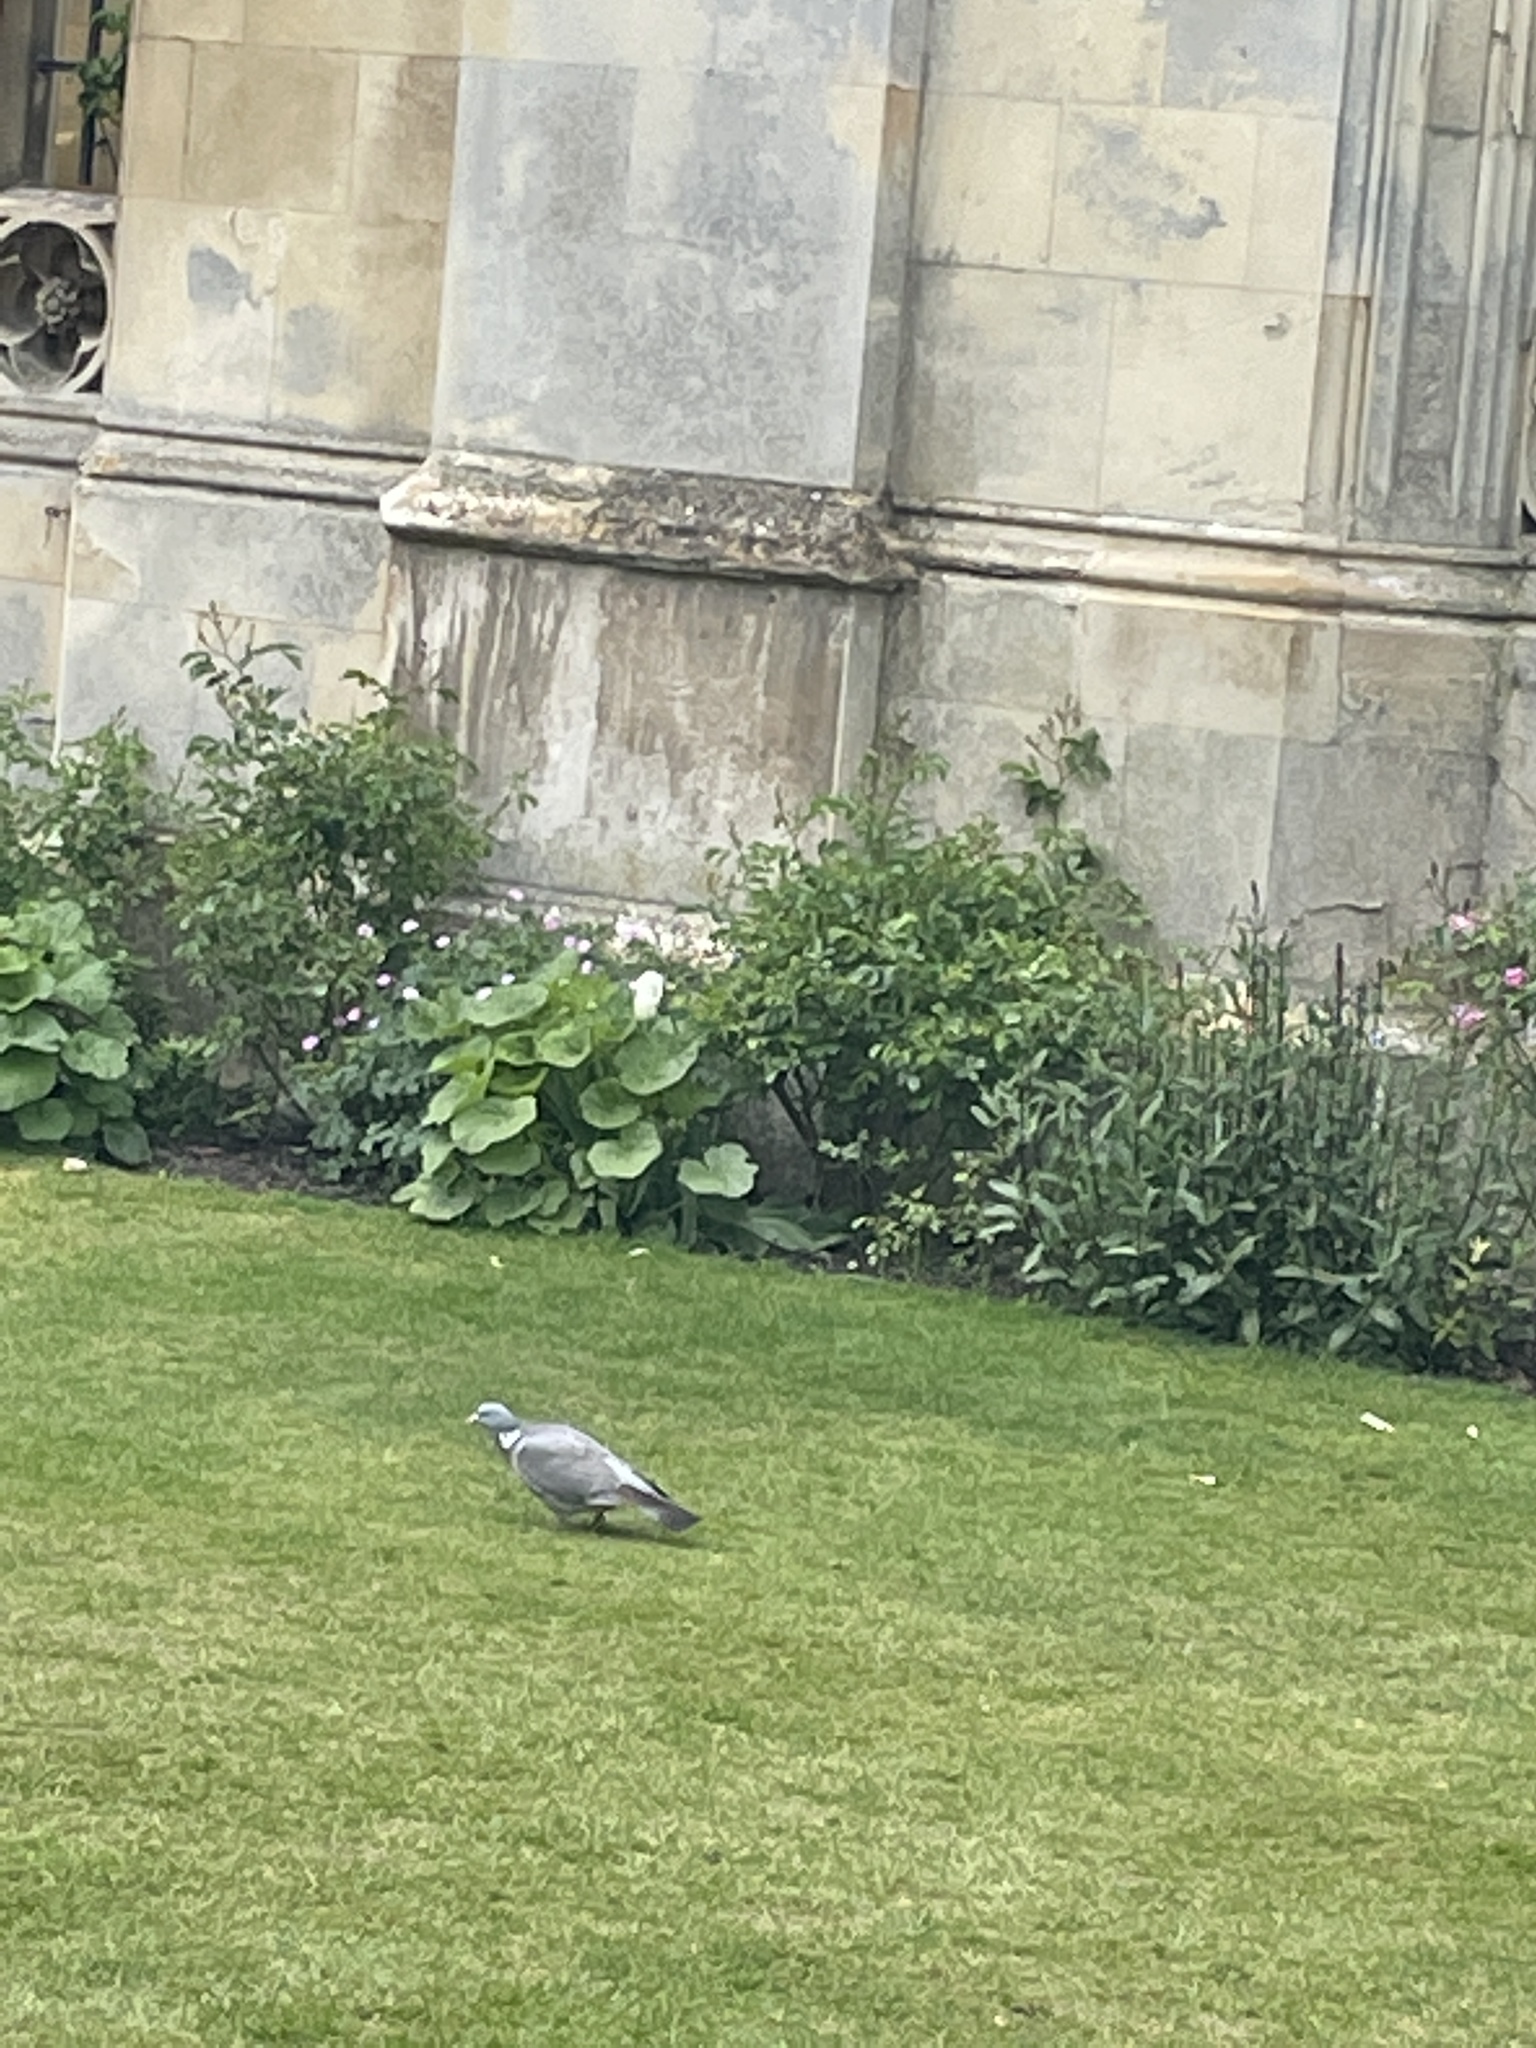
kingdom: Animalia
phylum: Chordata
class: Aves
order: Columbiformes
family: Columbidae
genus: Columba
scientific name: Columba palumbus
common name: Common wood pigeon
